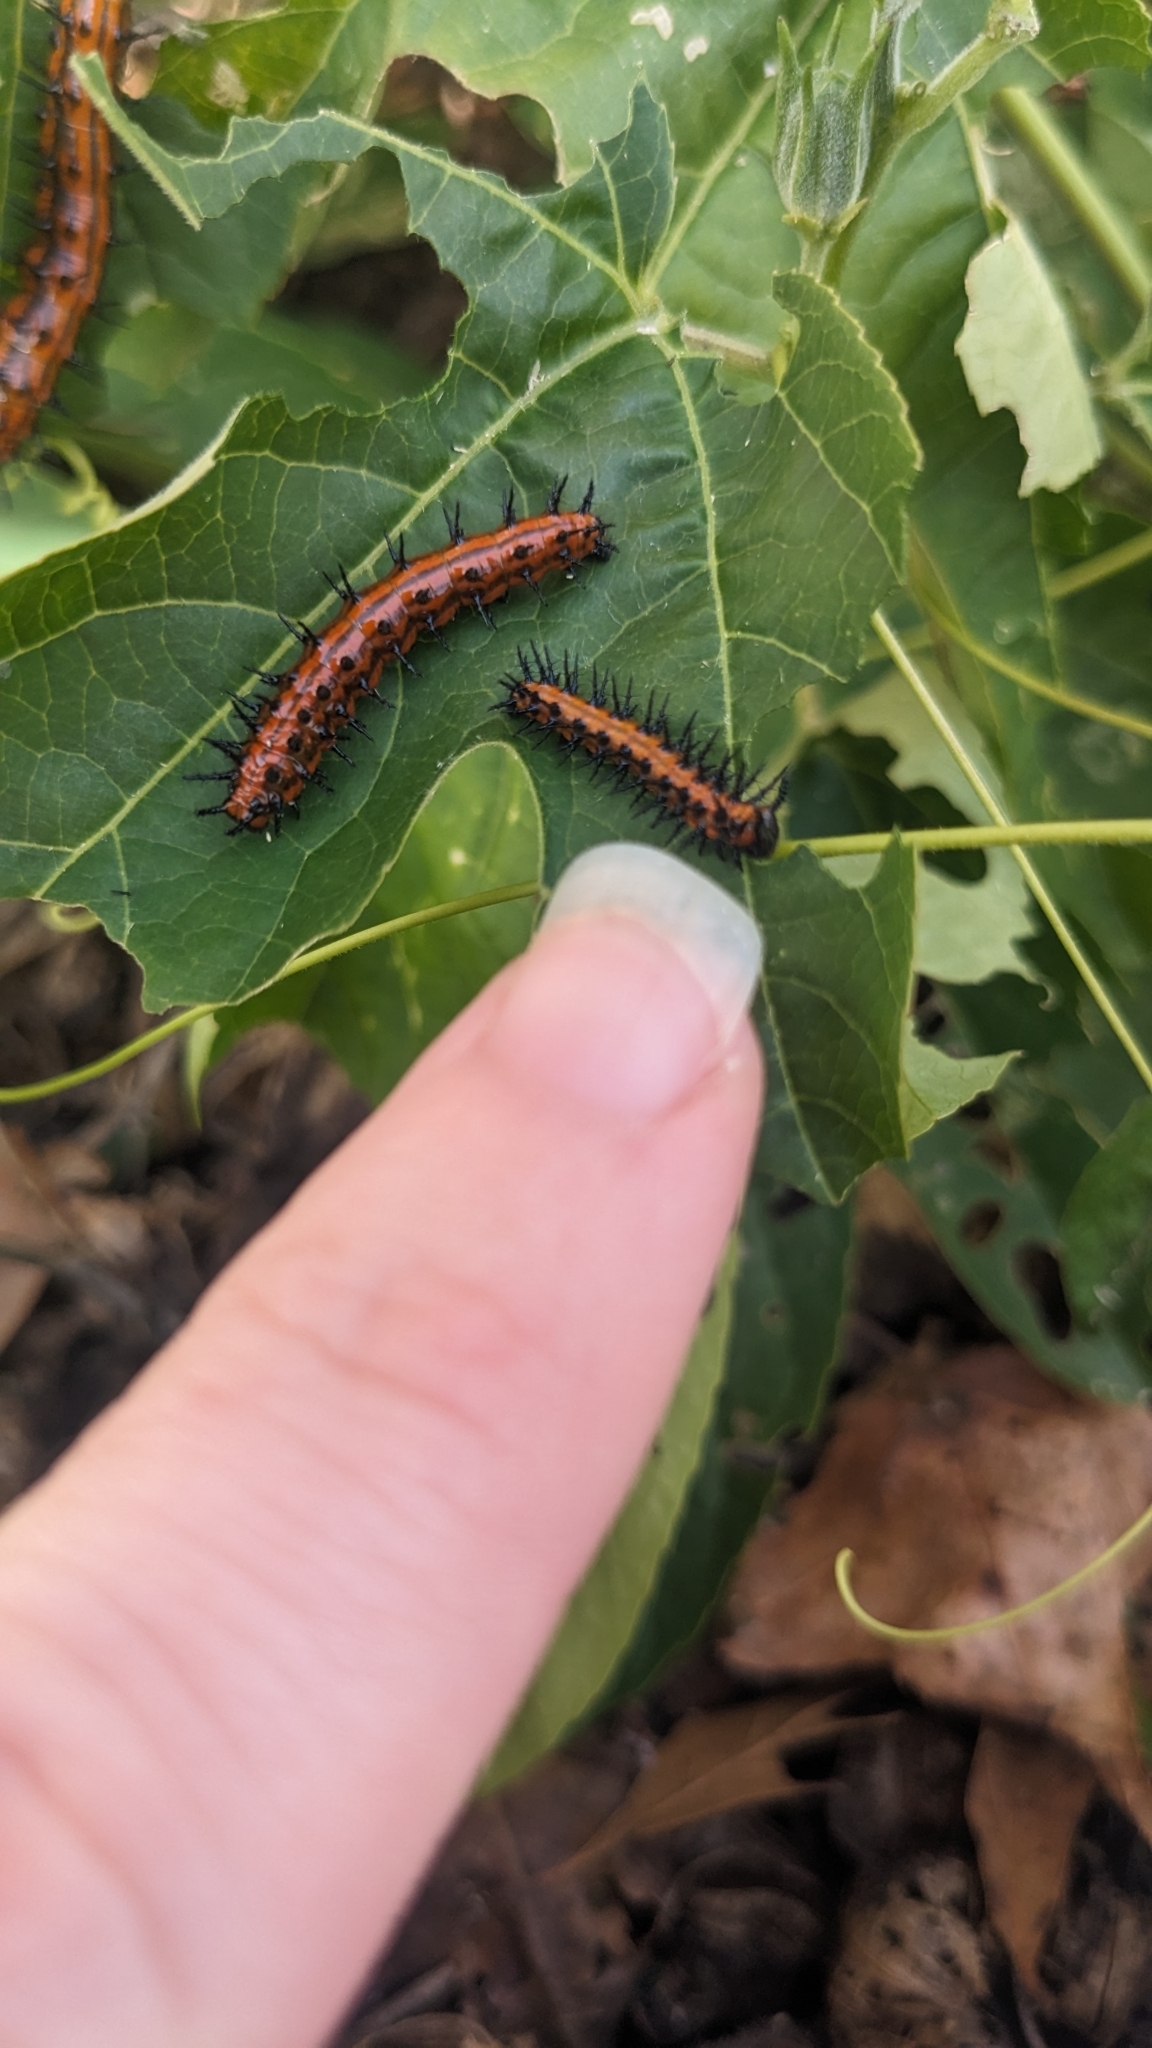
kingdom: Animalia
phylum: Arthropoda
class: Insecta
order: Lepidoptera
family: Nymphalidae
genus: Dione
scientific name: Dione vanillae
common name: Gulf fritillary
